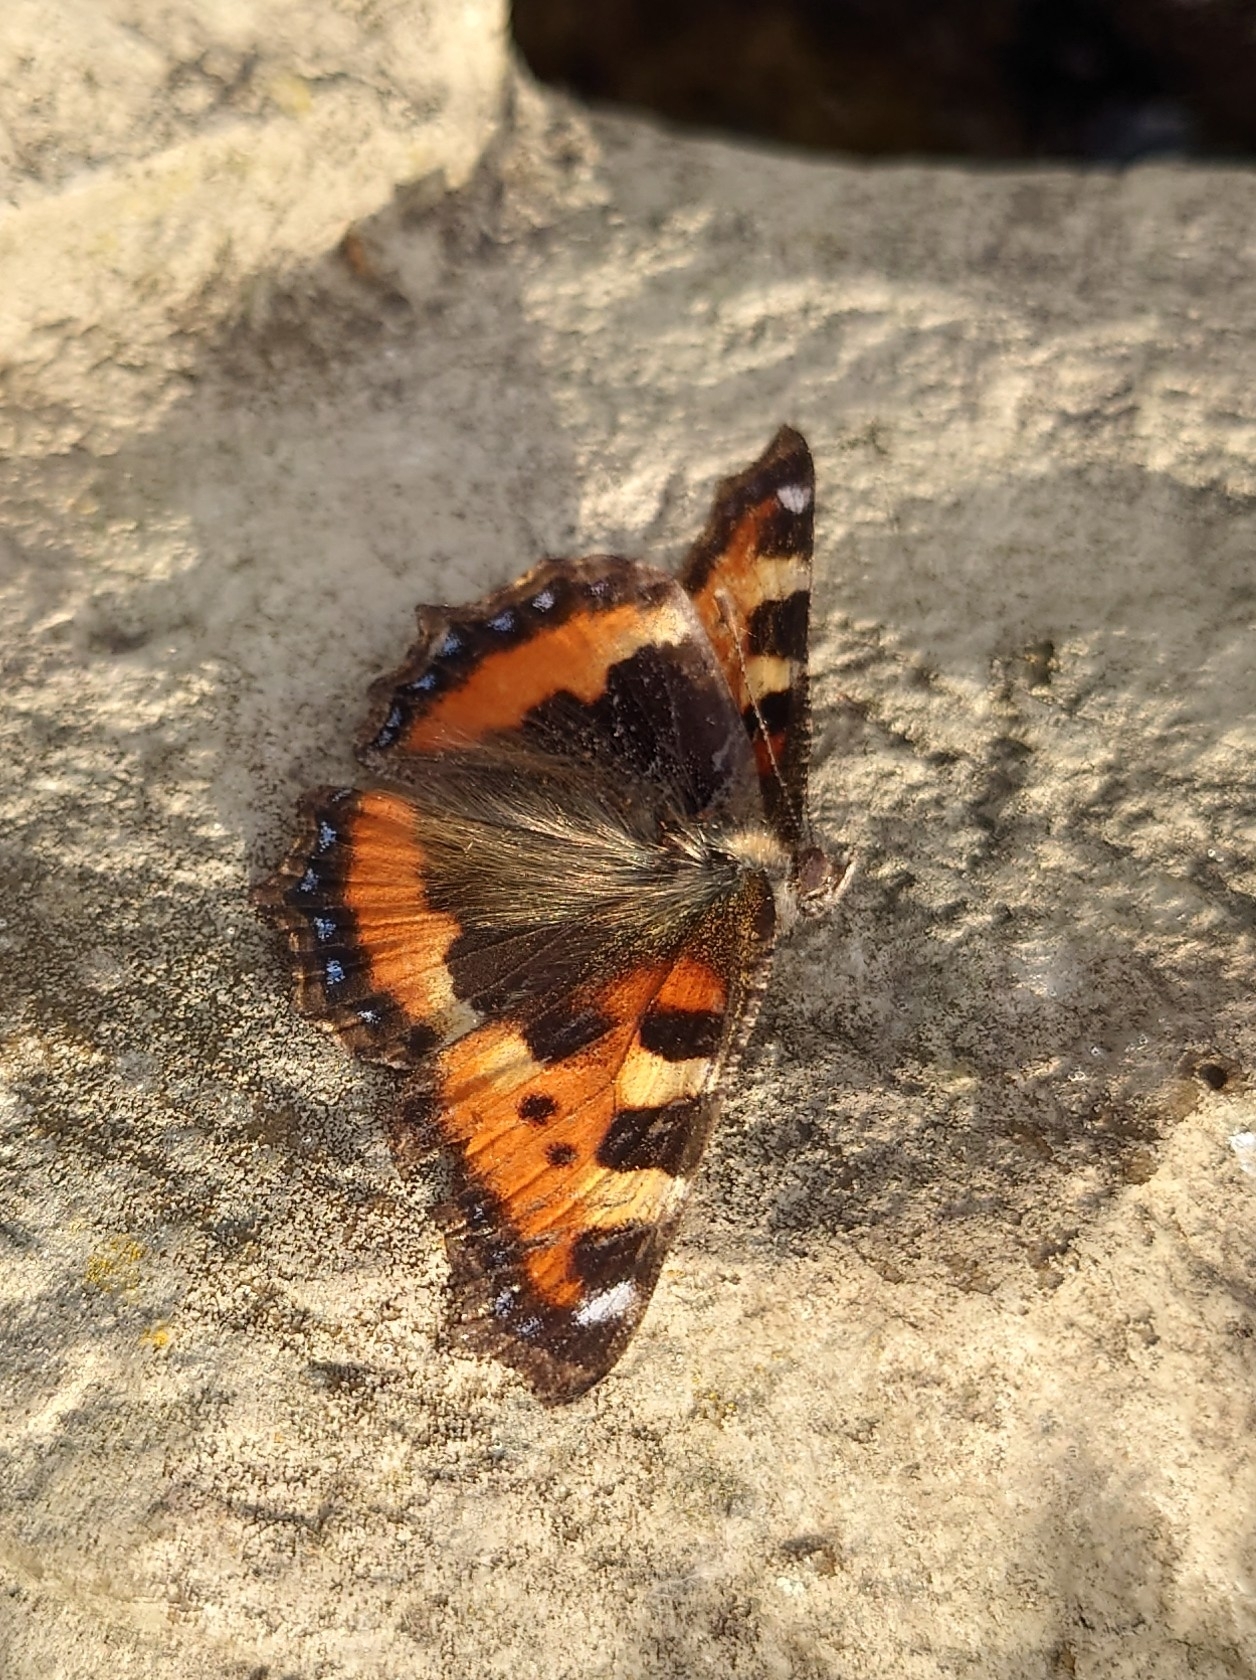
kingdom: Animalia
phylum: Arthropoda
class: Insecta
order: Lepidoptera
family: Nymphalidae
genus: Aglais
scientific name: Aglais urticae
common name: Small tortoiseshell
